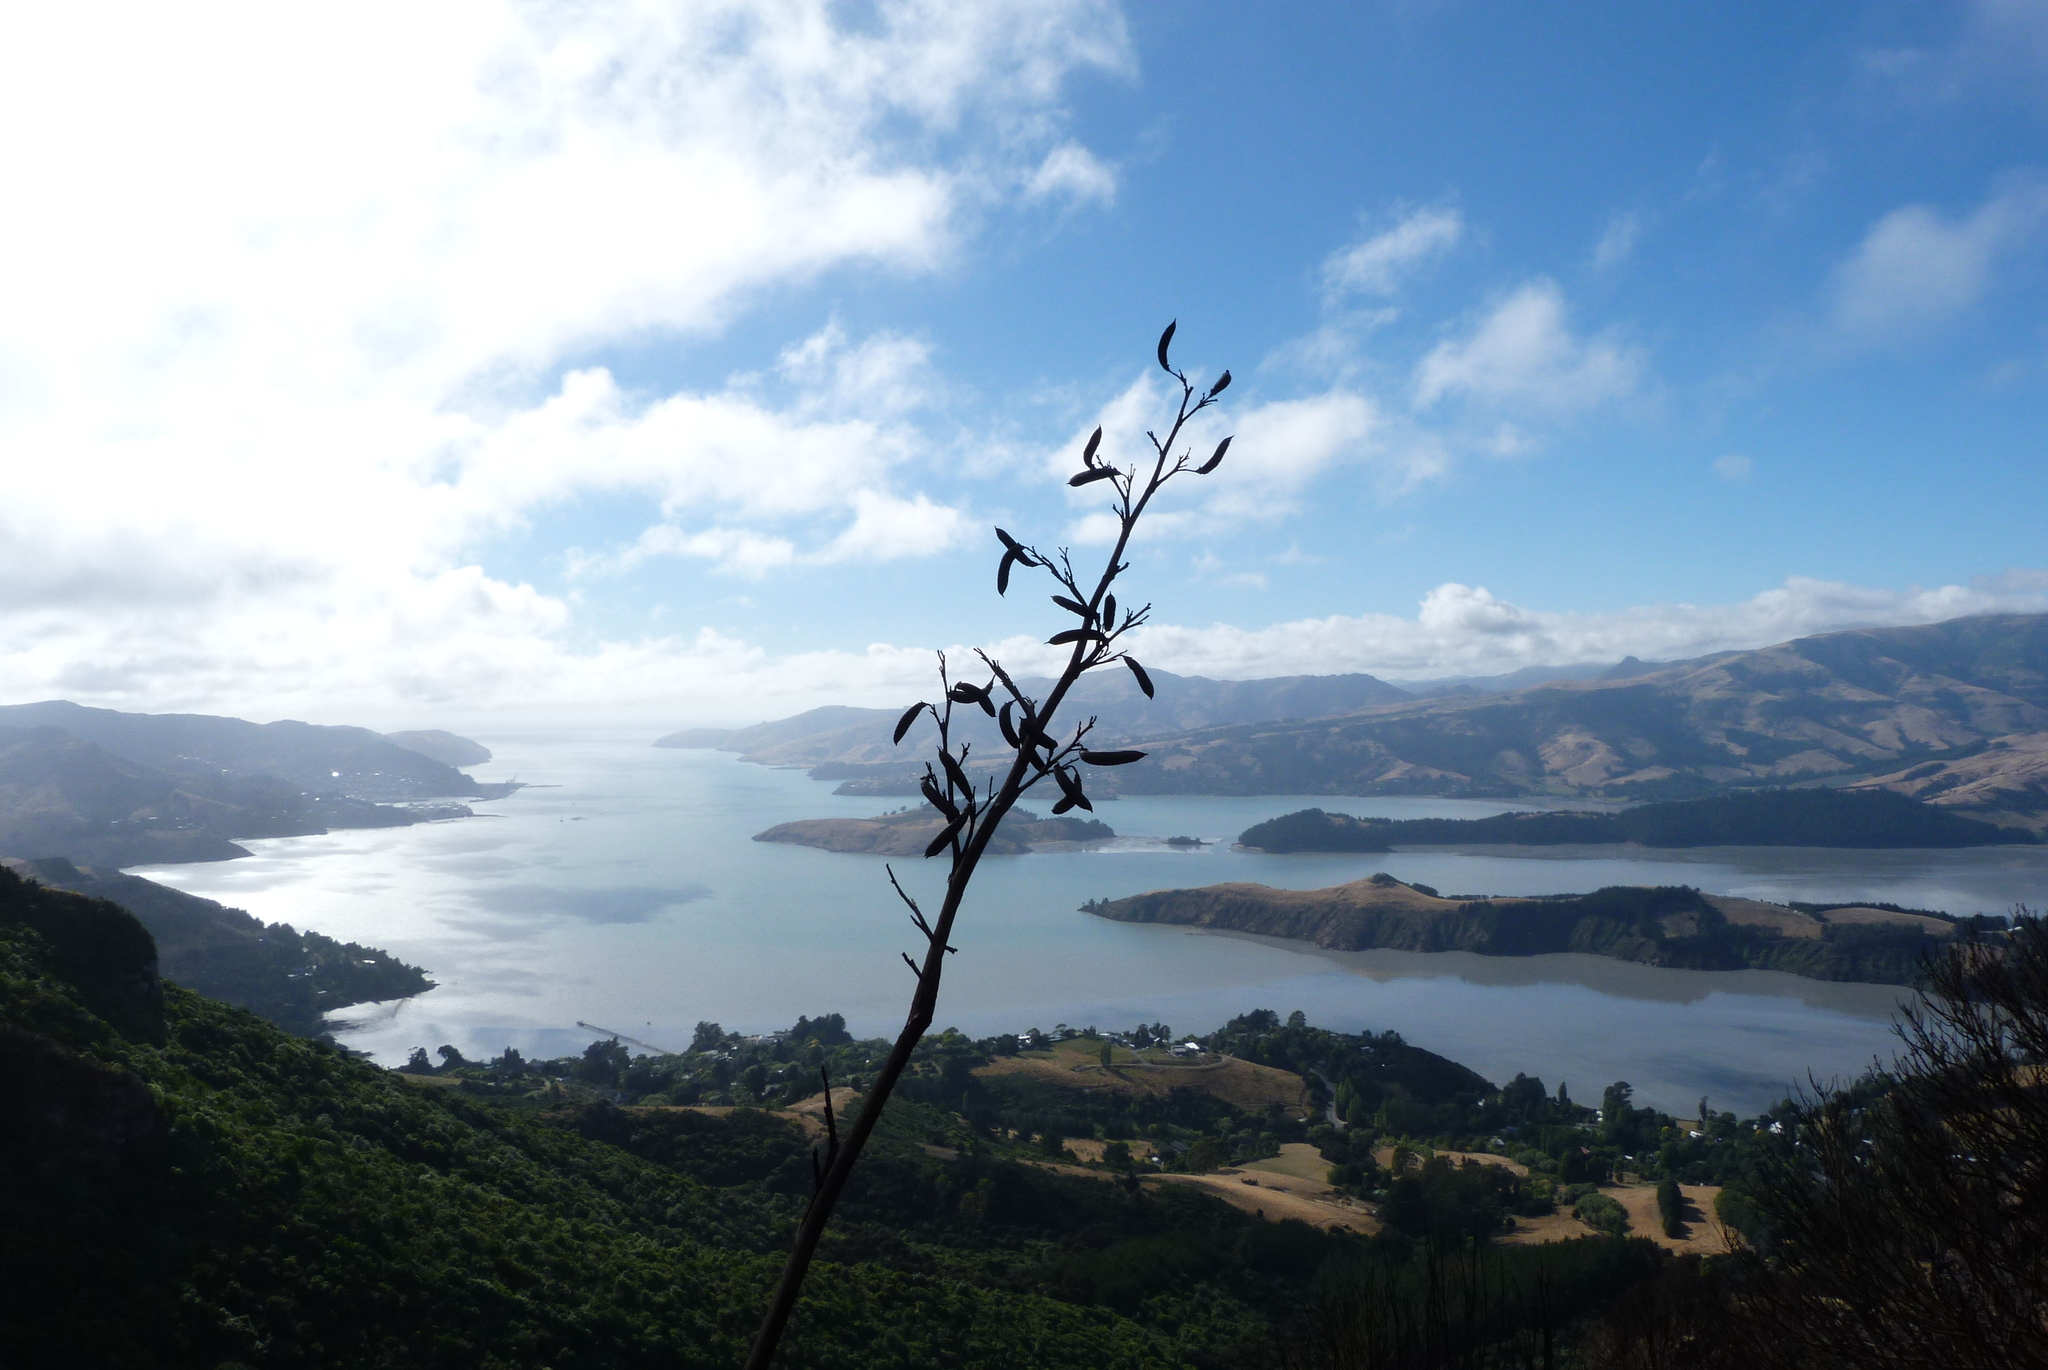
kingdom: Plantae
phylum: Tracheophyta
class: Liliopsida
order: Asparagales
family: Asphodelaceae
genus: Phormium
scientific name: Phormium tenax
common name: New zealand flax
